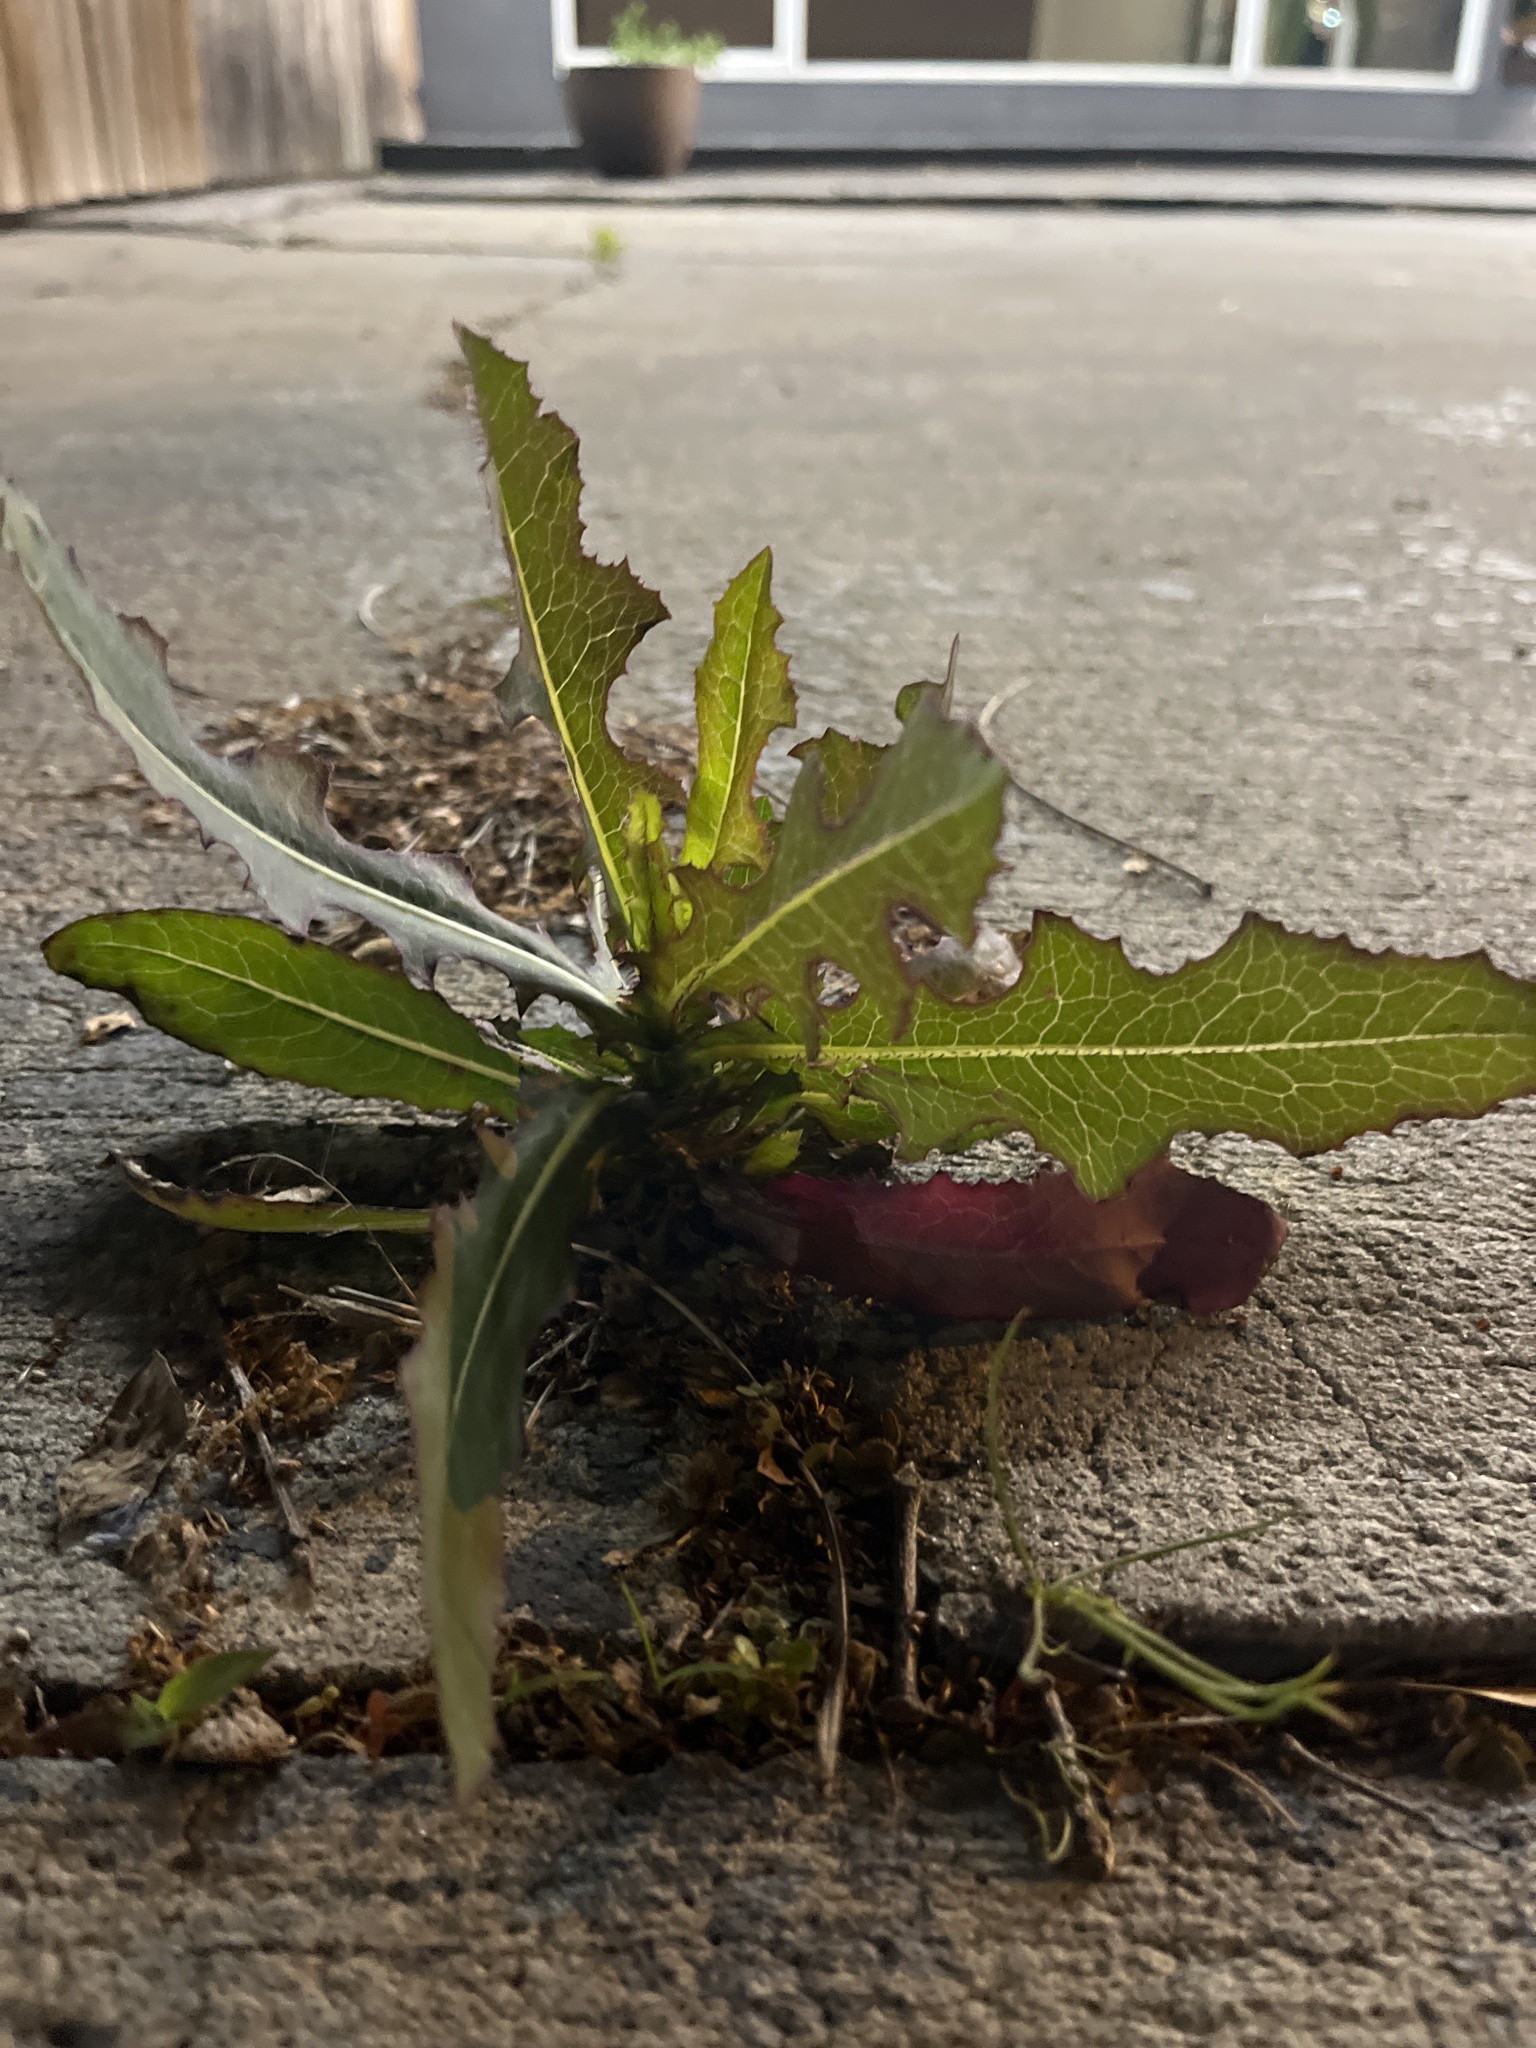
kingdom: Plantae
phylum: Tracheophyta
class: Magnoliopsida
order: Asterales
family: Asteraceae
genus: Lactuca
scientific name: Lactuca serriola
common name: Prickly lettuce
